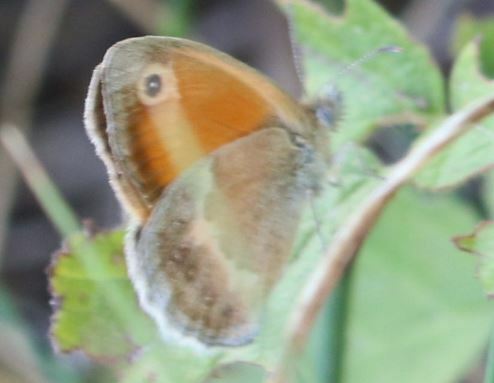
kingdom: Animalia
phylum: Arthropoda
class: Insecta
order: Lepidoptera
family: Nymphalidae
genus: Coenonympha
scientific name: Coenonympha pamphilus
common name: Small heath
